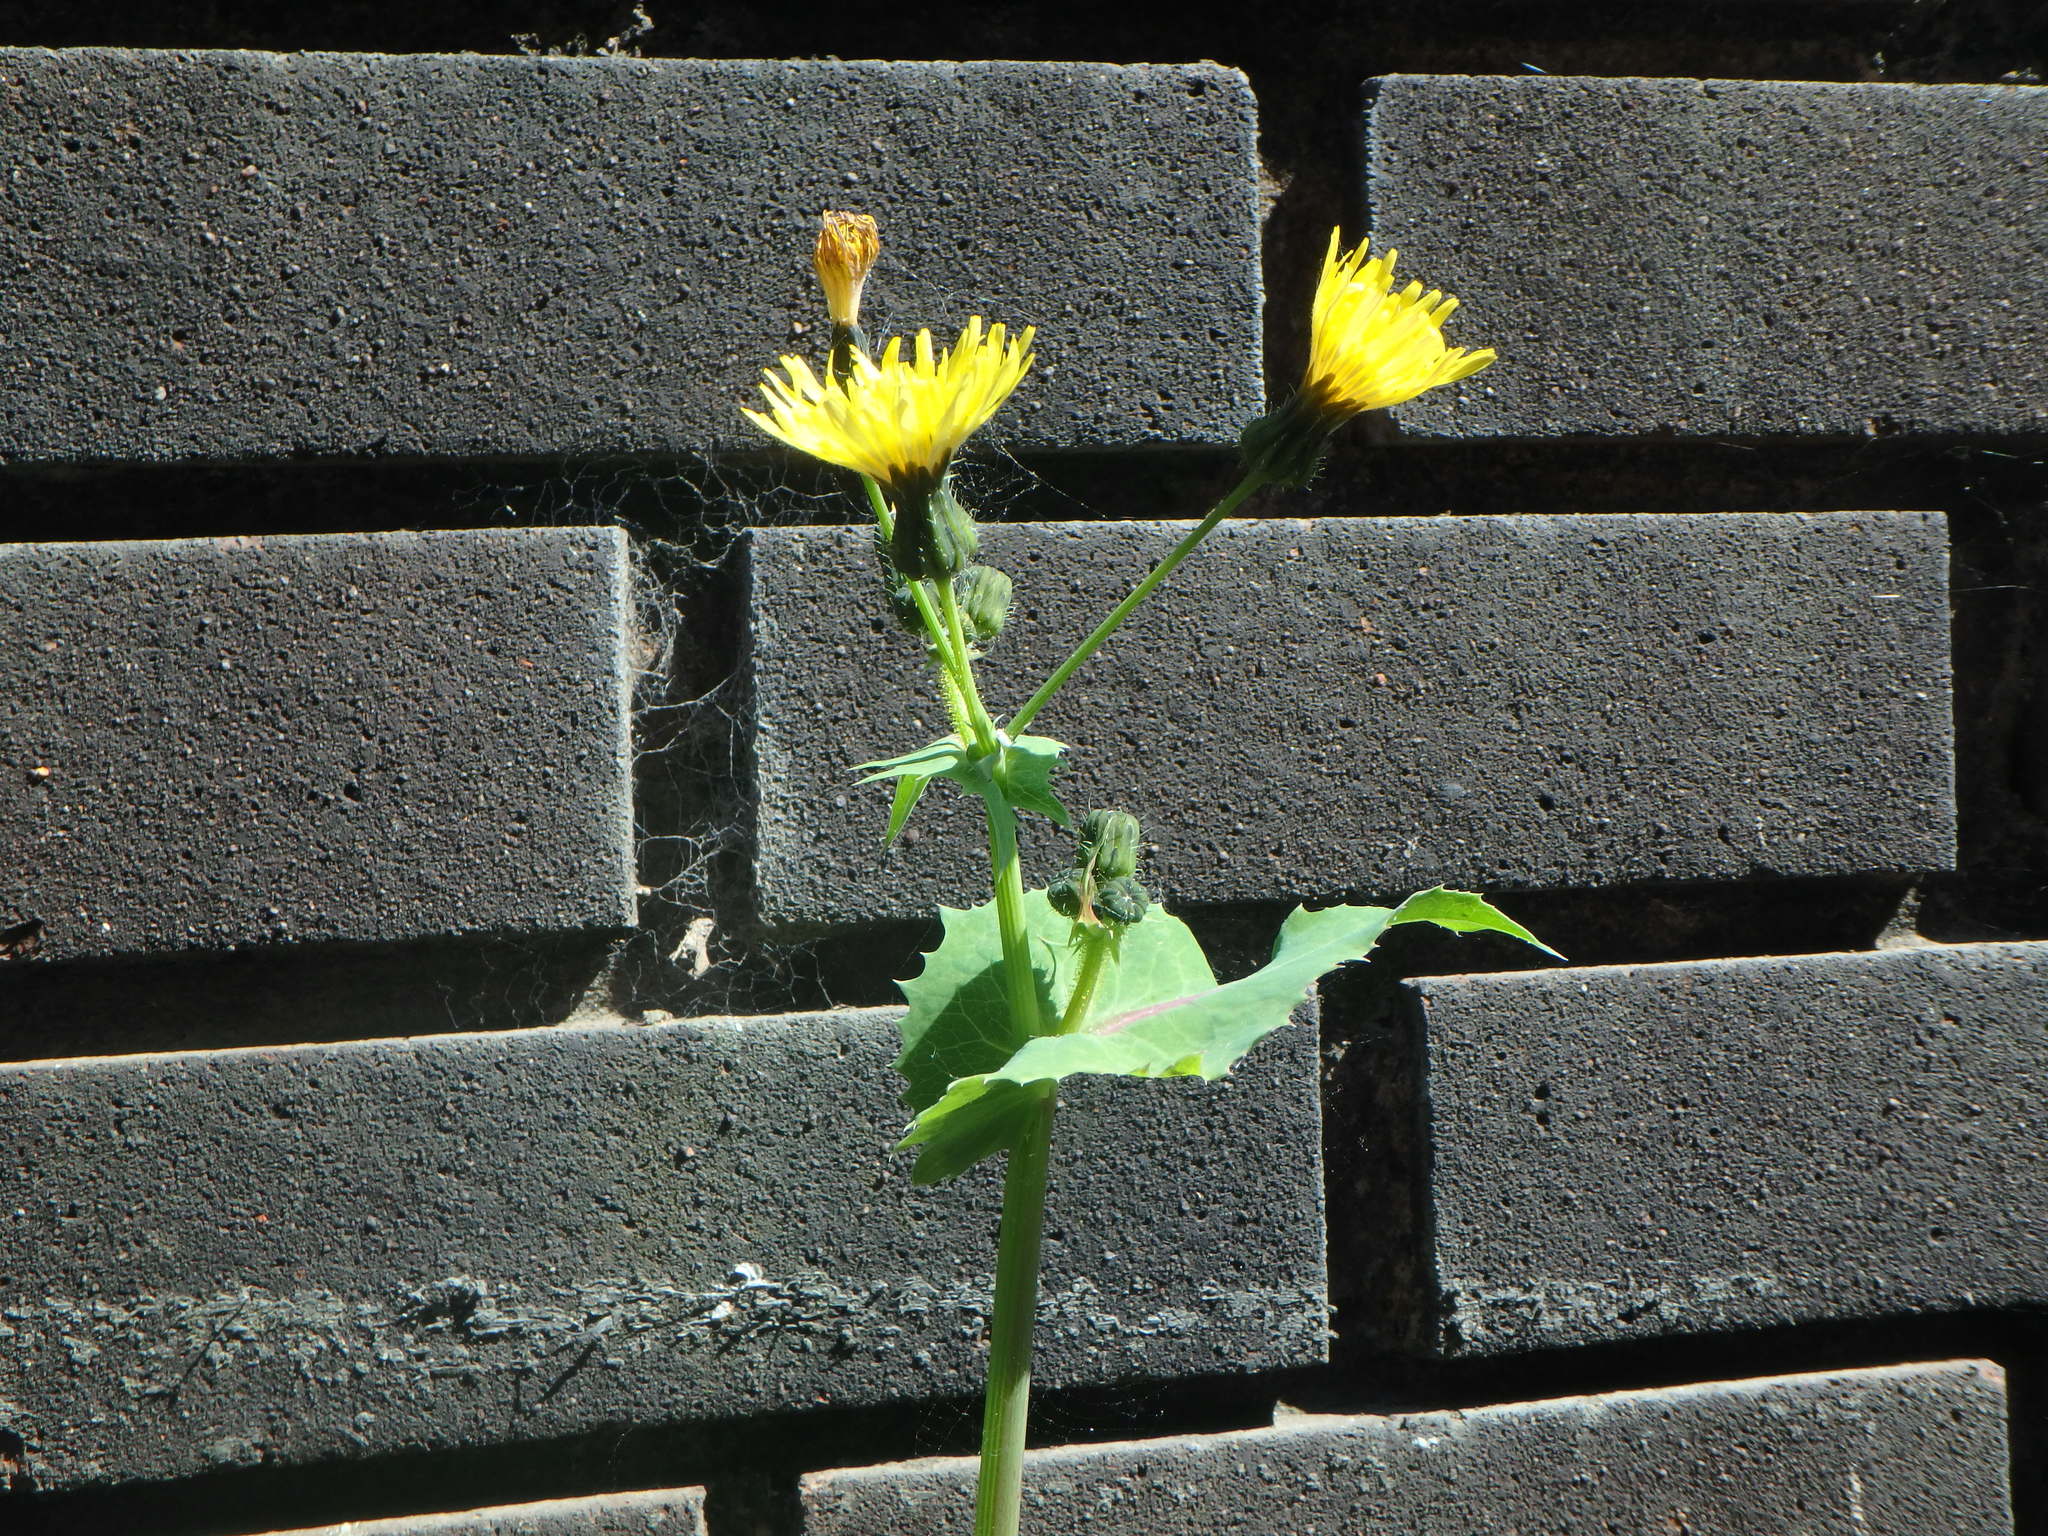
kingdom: Plantae
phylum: Tracheophyta
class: Magnoliopsida
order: Asterales
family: Asteraceae
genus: Sonchus
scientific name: Sonchus oleraceus
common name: Common sowthistle
